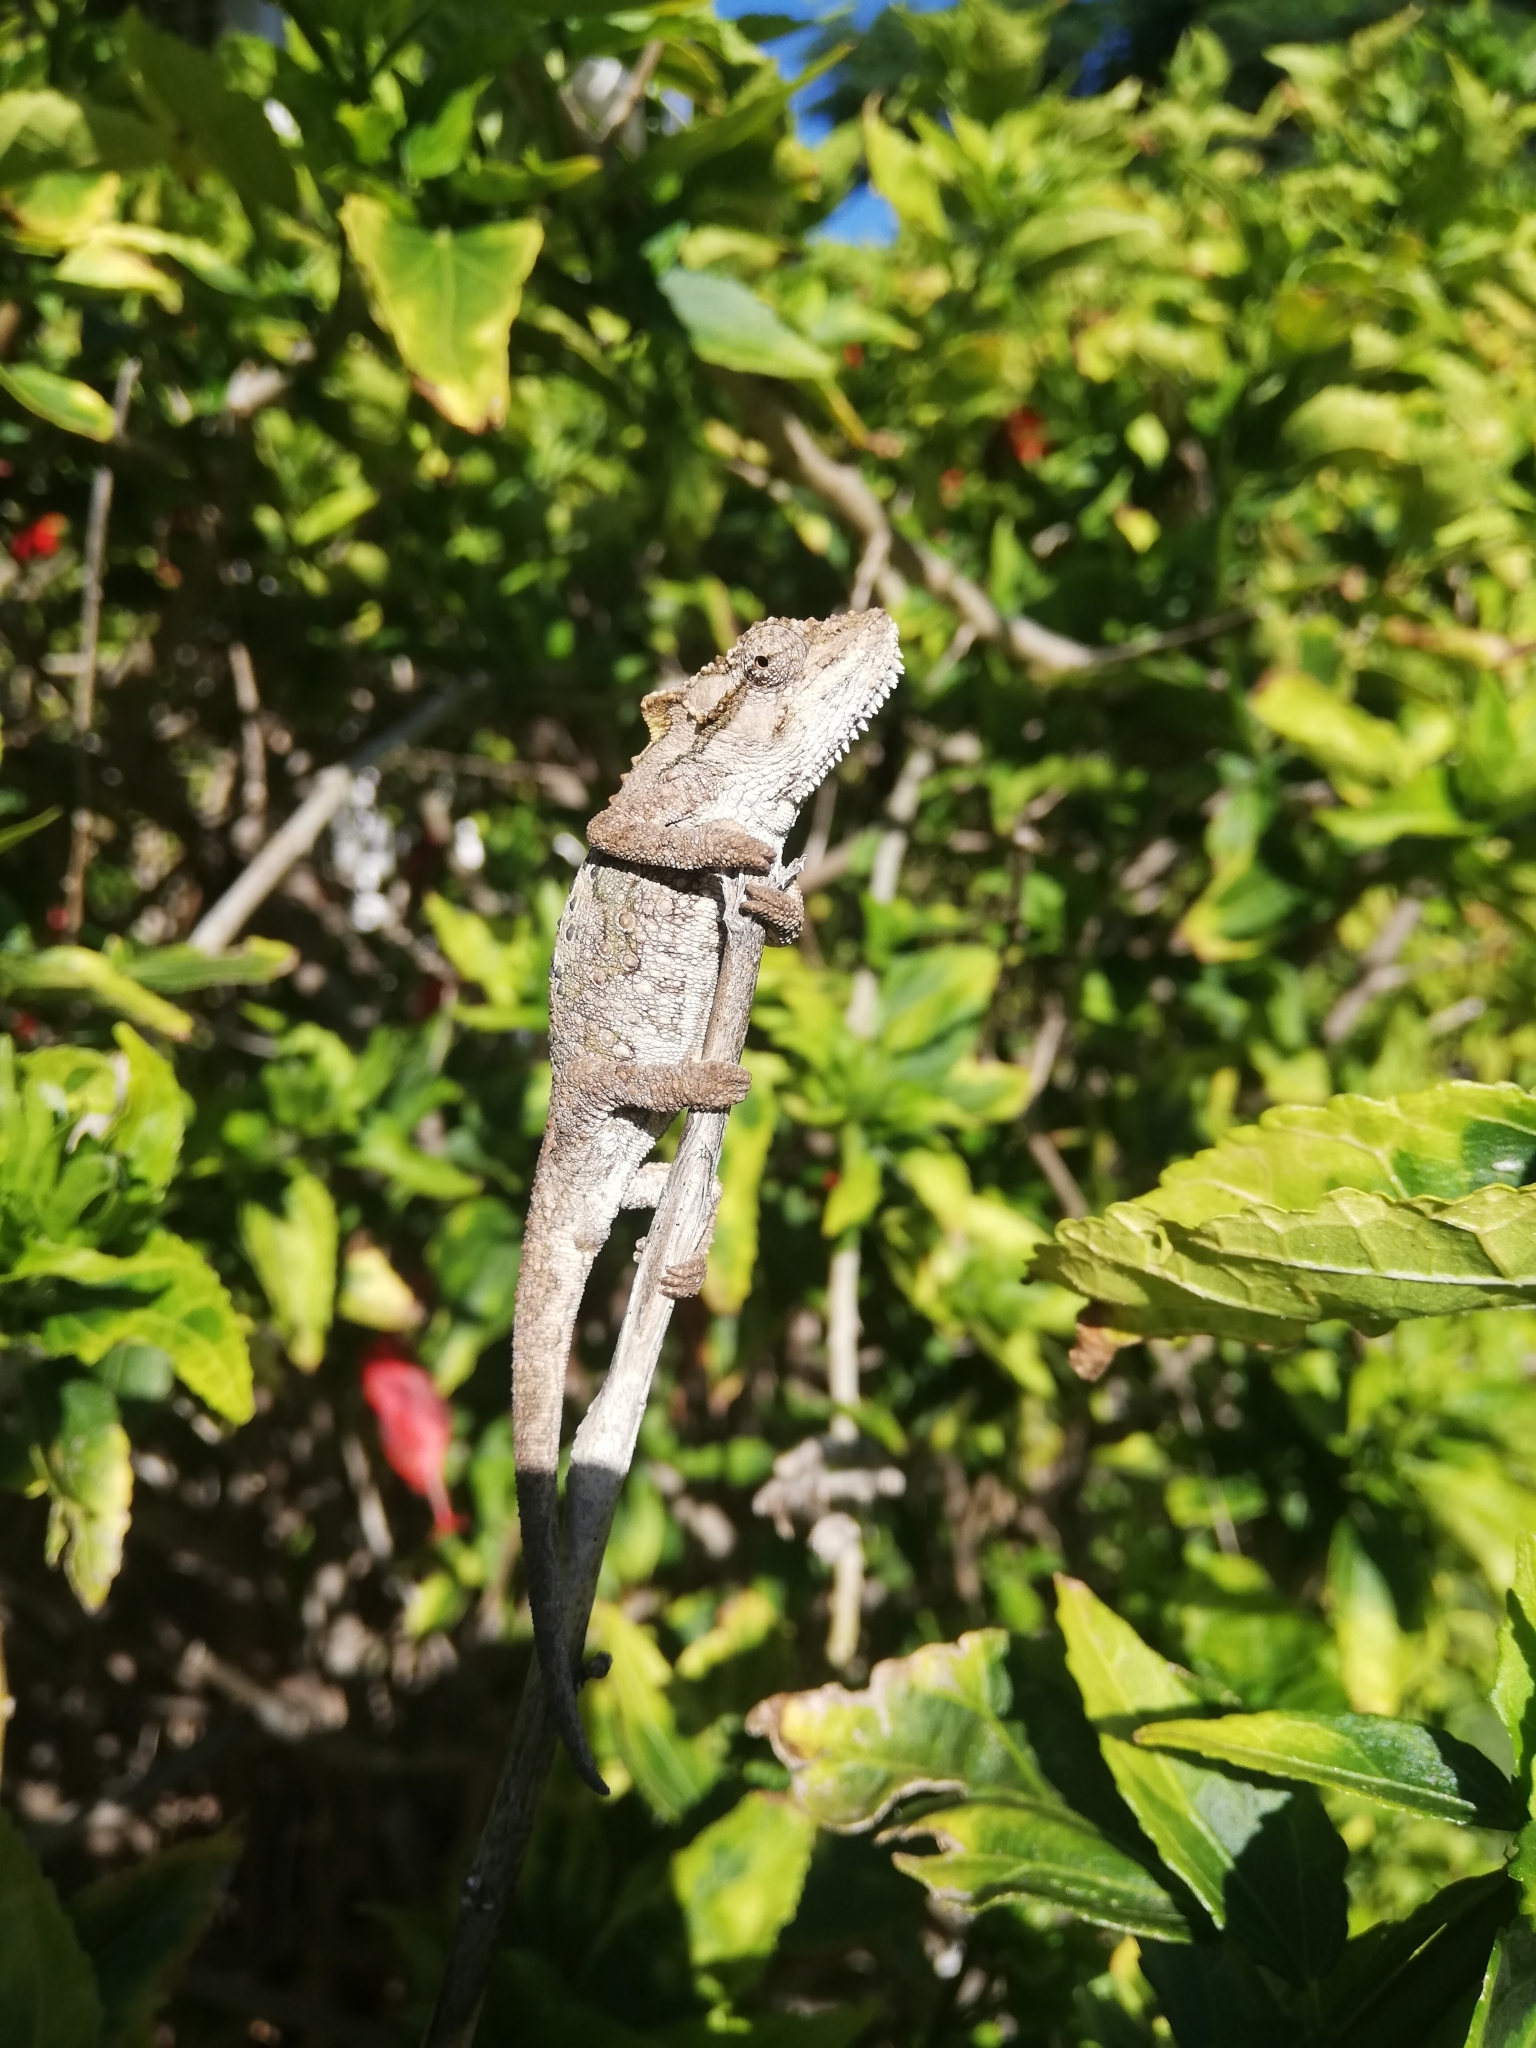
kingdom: Animalia
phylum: Chordata
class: Squamata
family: Chamaeleonidae
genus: Bradypodion
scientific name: Bradypodion ventrale
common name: Eastern cape dwarf chameleon
